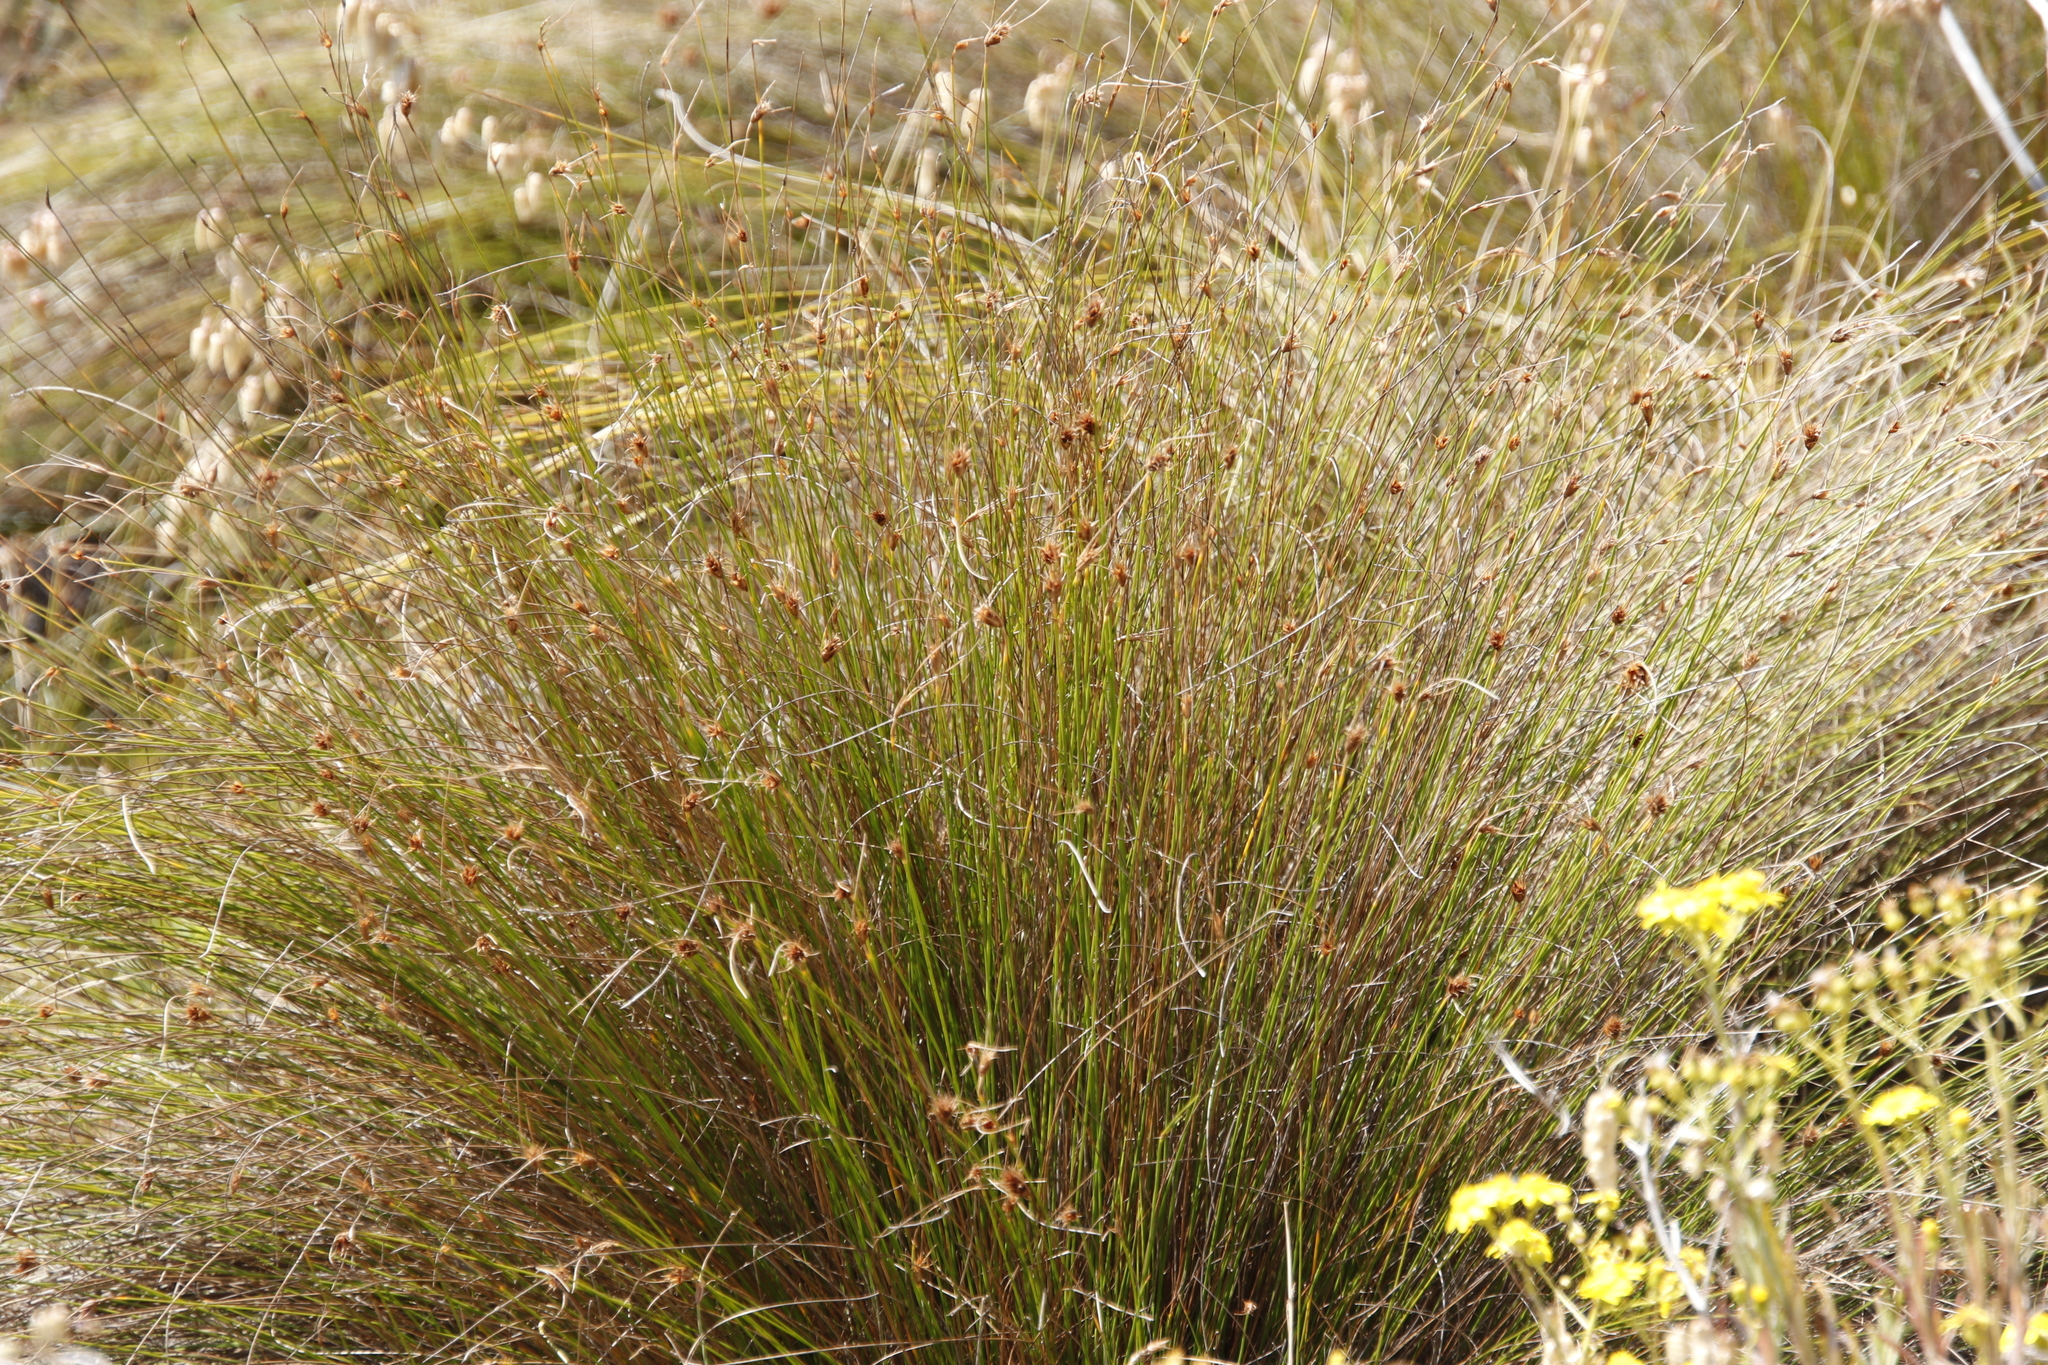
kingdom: Plantae
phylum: Tracheophyta
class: Liliopsida
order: Poales
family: Cyperaceae
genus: Ficinia
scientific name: Ficinia nigrescens
